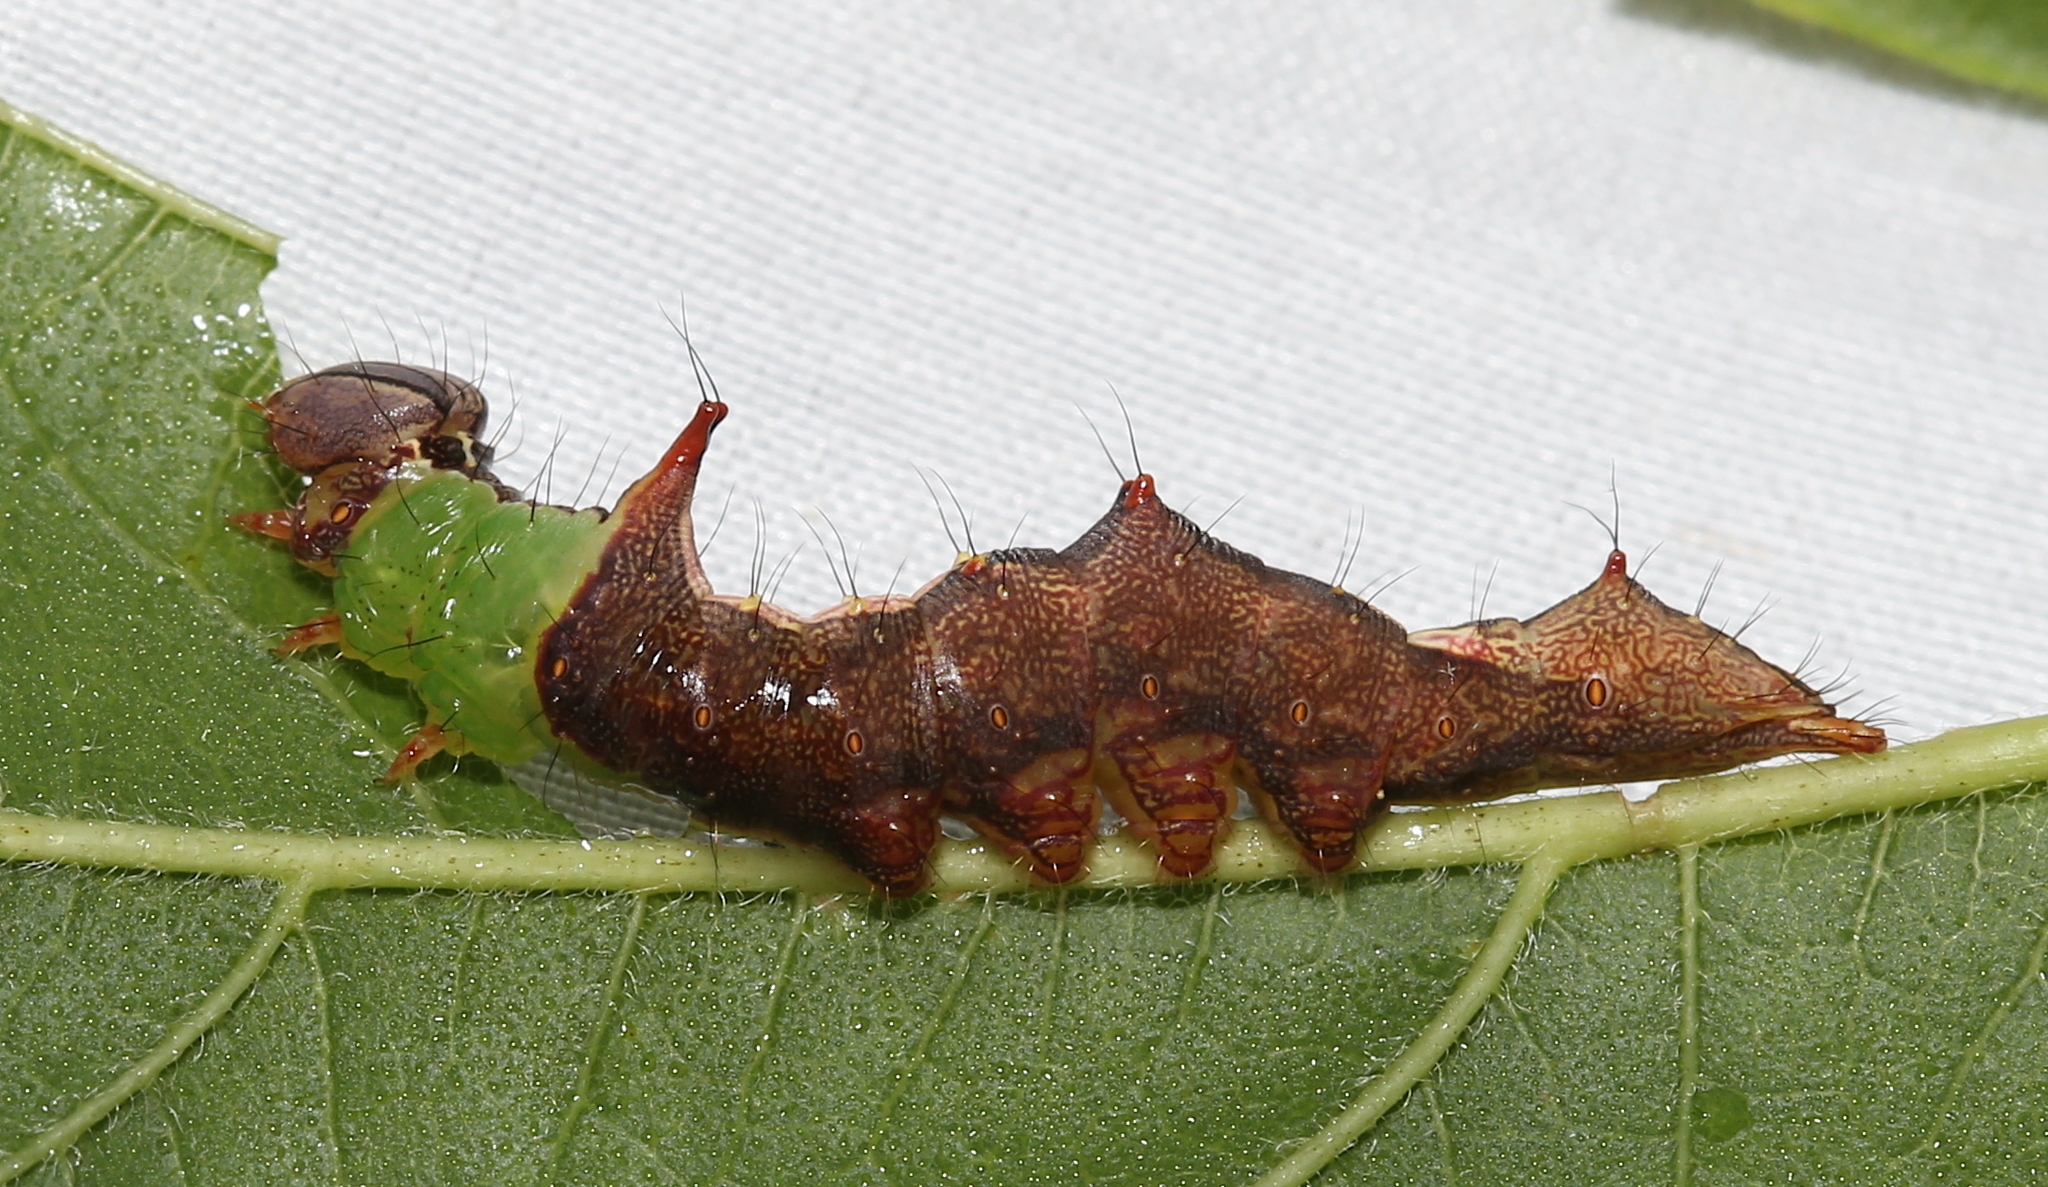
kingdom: Animalia
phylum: Arthropoda
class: Insecta
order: Lepidoptera
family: Notodontidae
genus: Schizura
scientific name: Schizura ipomaeae
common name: Morning-glory prominent
